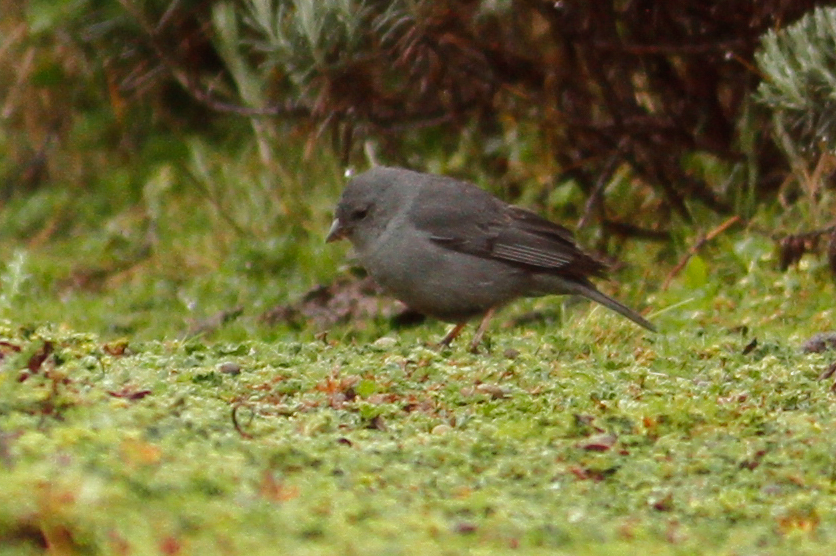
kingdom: Animalia
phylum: Chordata
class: Aves
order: Passeriformes
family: Thraupidae
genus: Geospizopsis
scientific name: Geospizopsis unicolor
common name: Plumbeous sierra-finch
